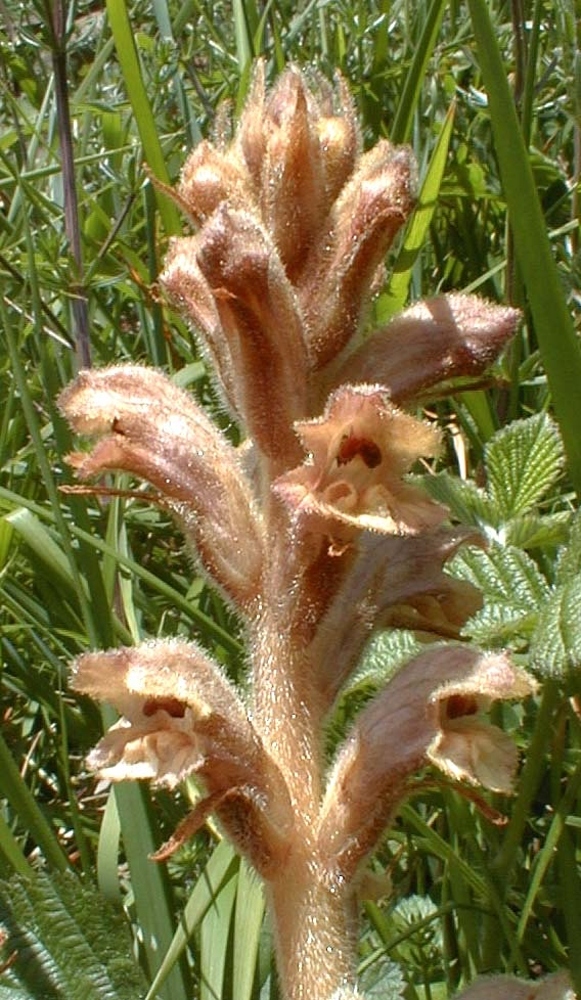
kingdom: Plantae
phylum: Tracheophyta
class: Magnoliopsida
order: Lamiales
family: Orobanchaceae
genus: Orobanche
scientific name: Orobanche caryophyllacea
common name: Bedstraw broomrape
